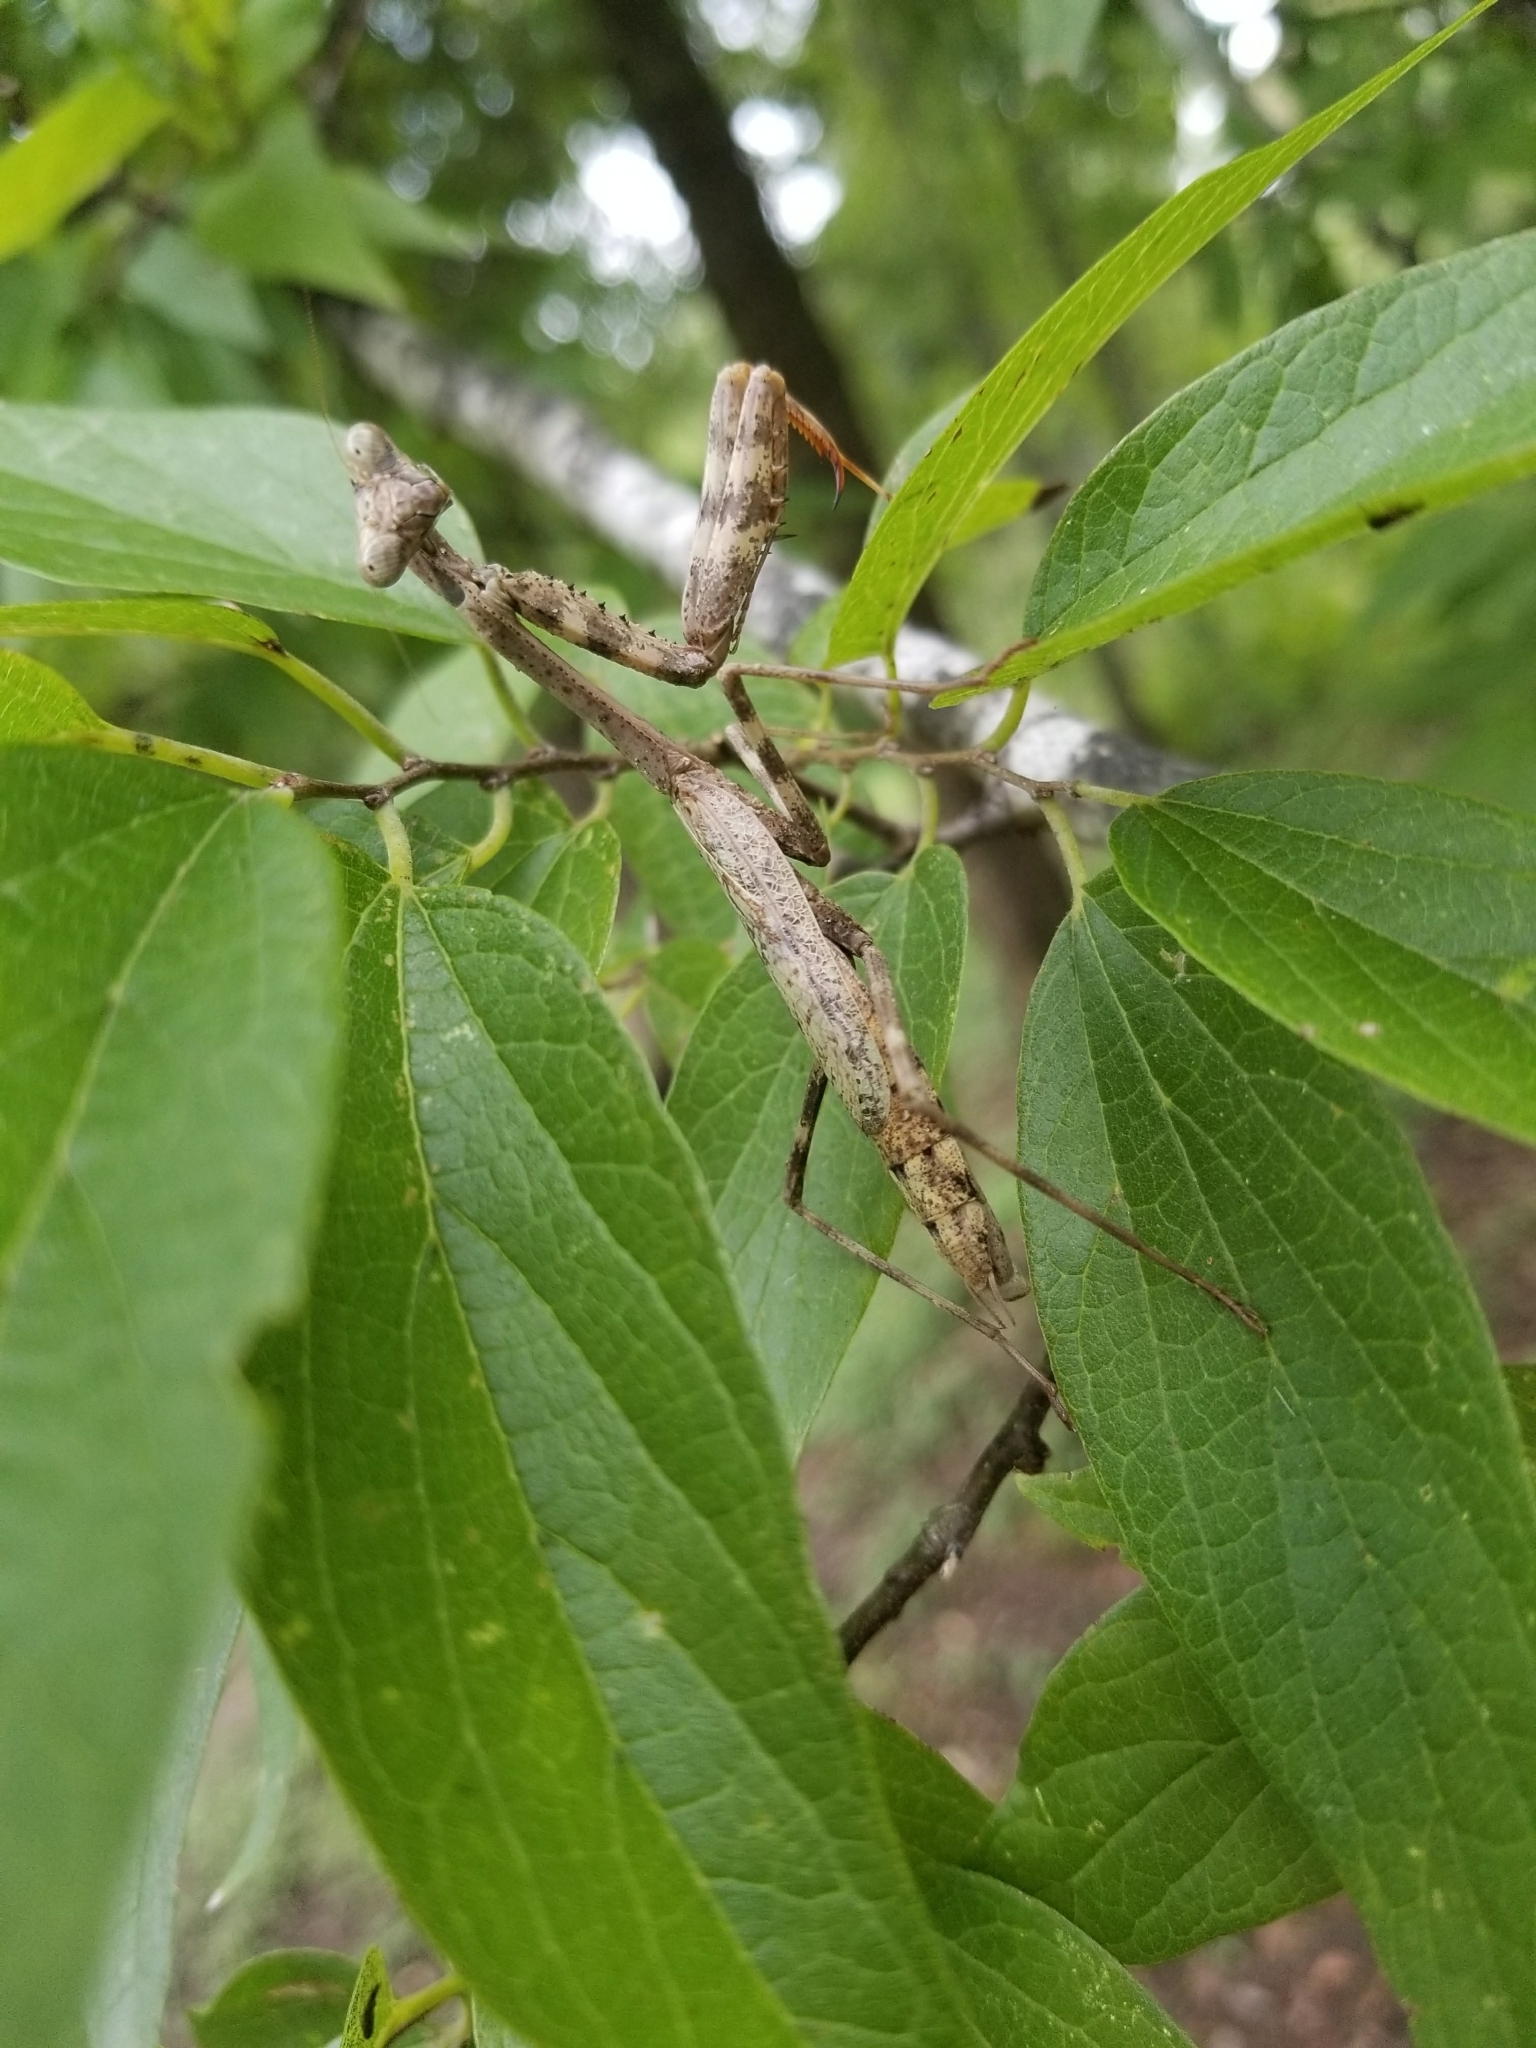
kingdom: Animalia
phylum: Arthropoda
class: Insecta
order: Mantodea
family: Mantidae
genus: Stagmomantis
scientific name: Stagmomantis carolina
